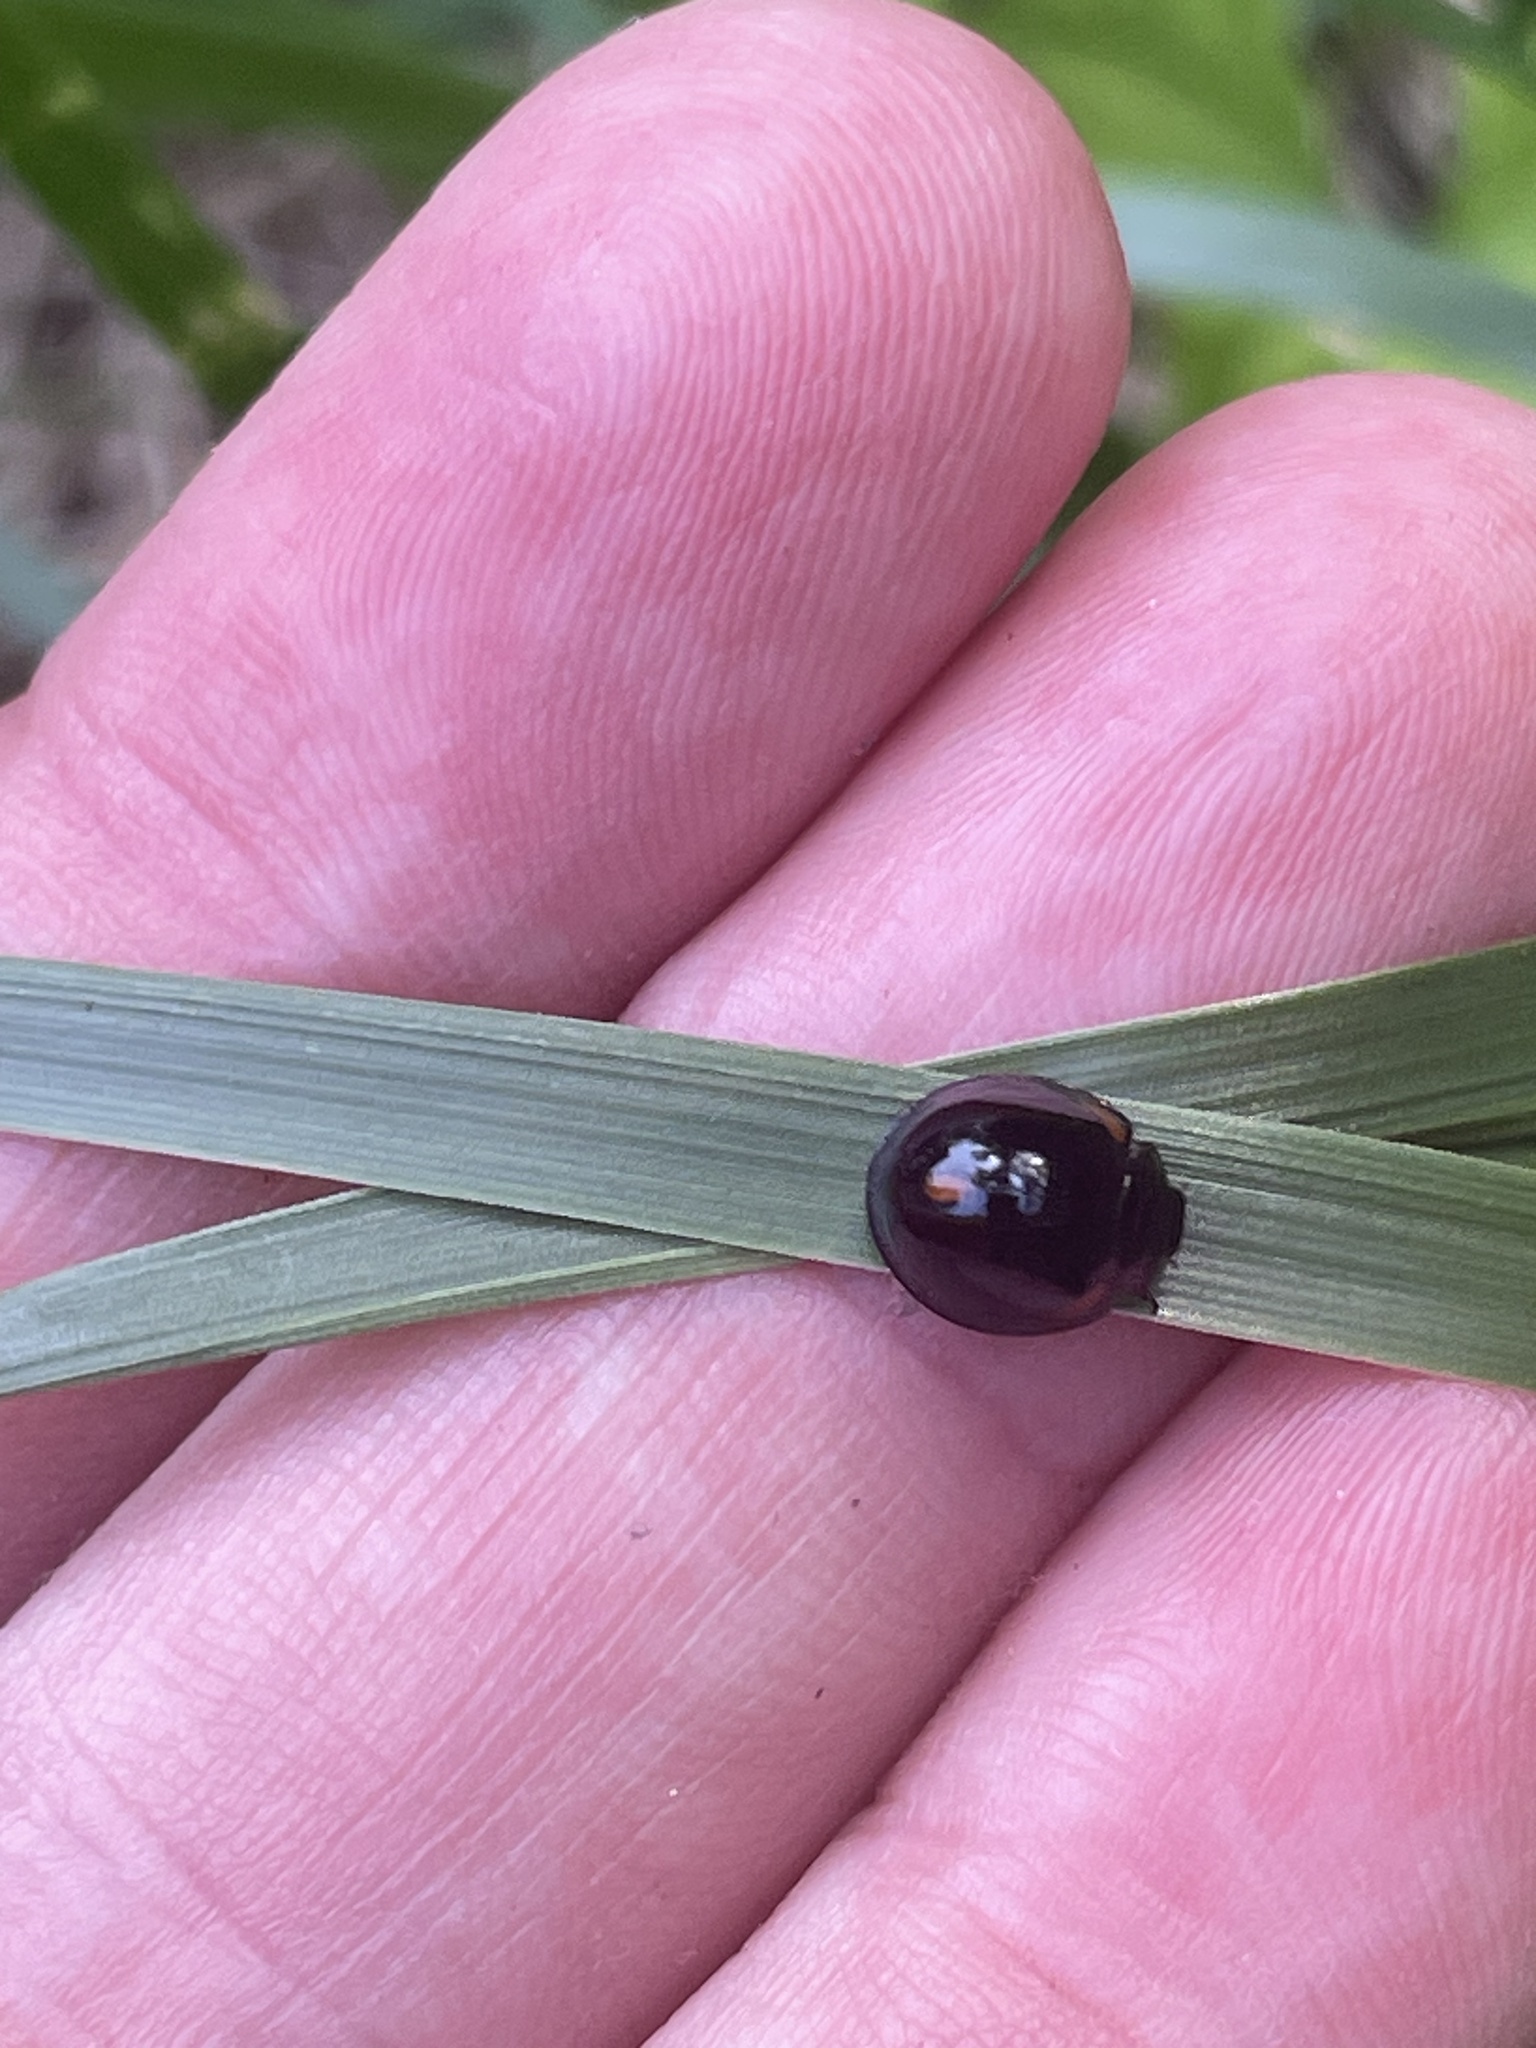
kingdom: Animalia
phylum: Arthropoda
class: Insecta
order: Coleoptera
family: Coccinellidae
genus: Axion
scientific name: Axion tripustulatum
